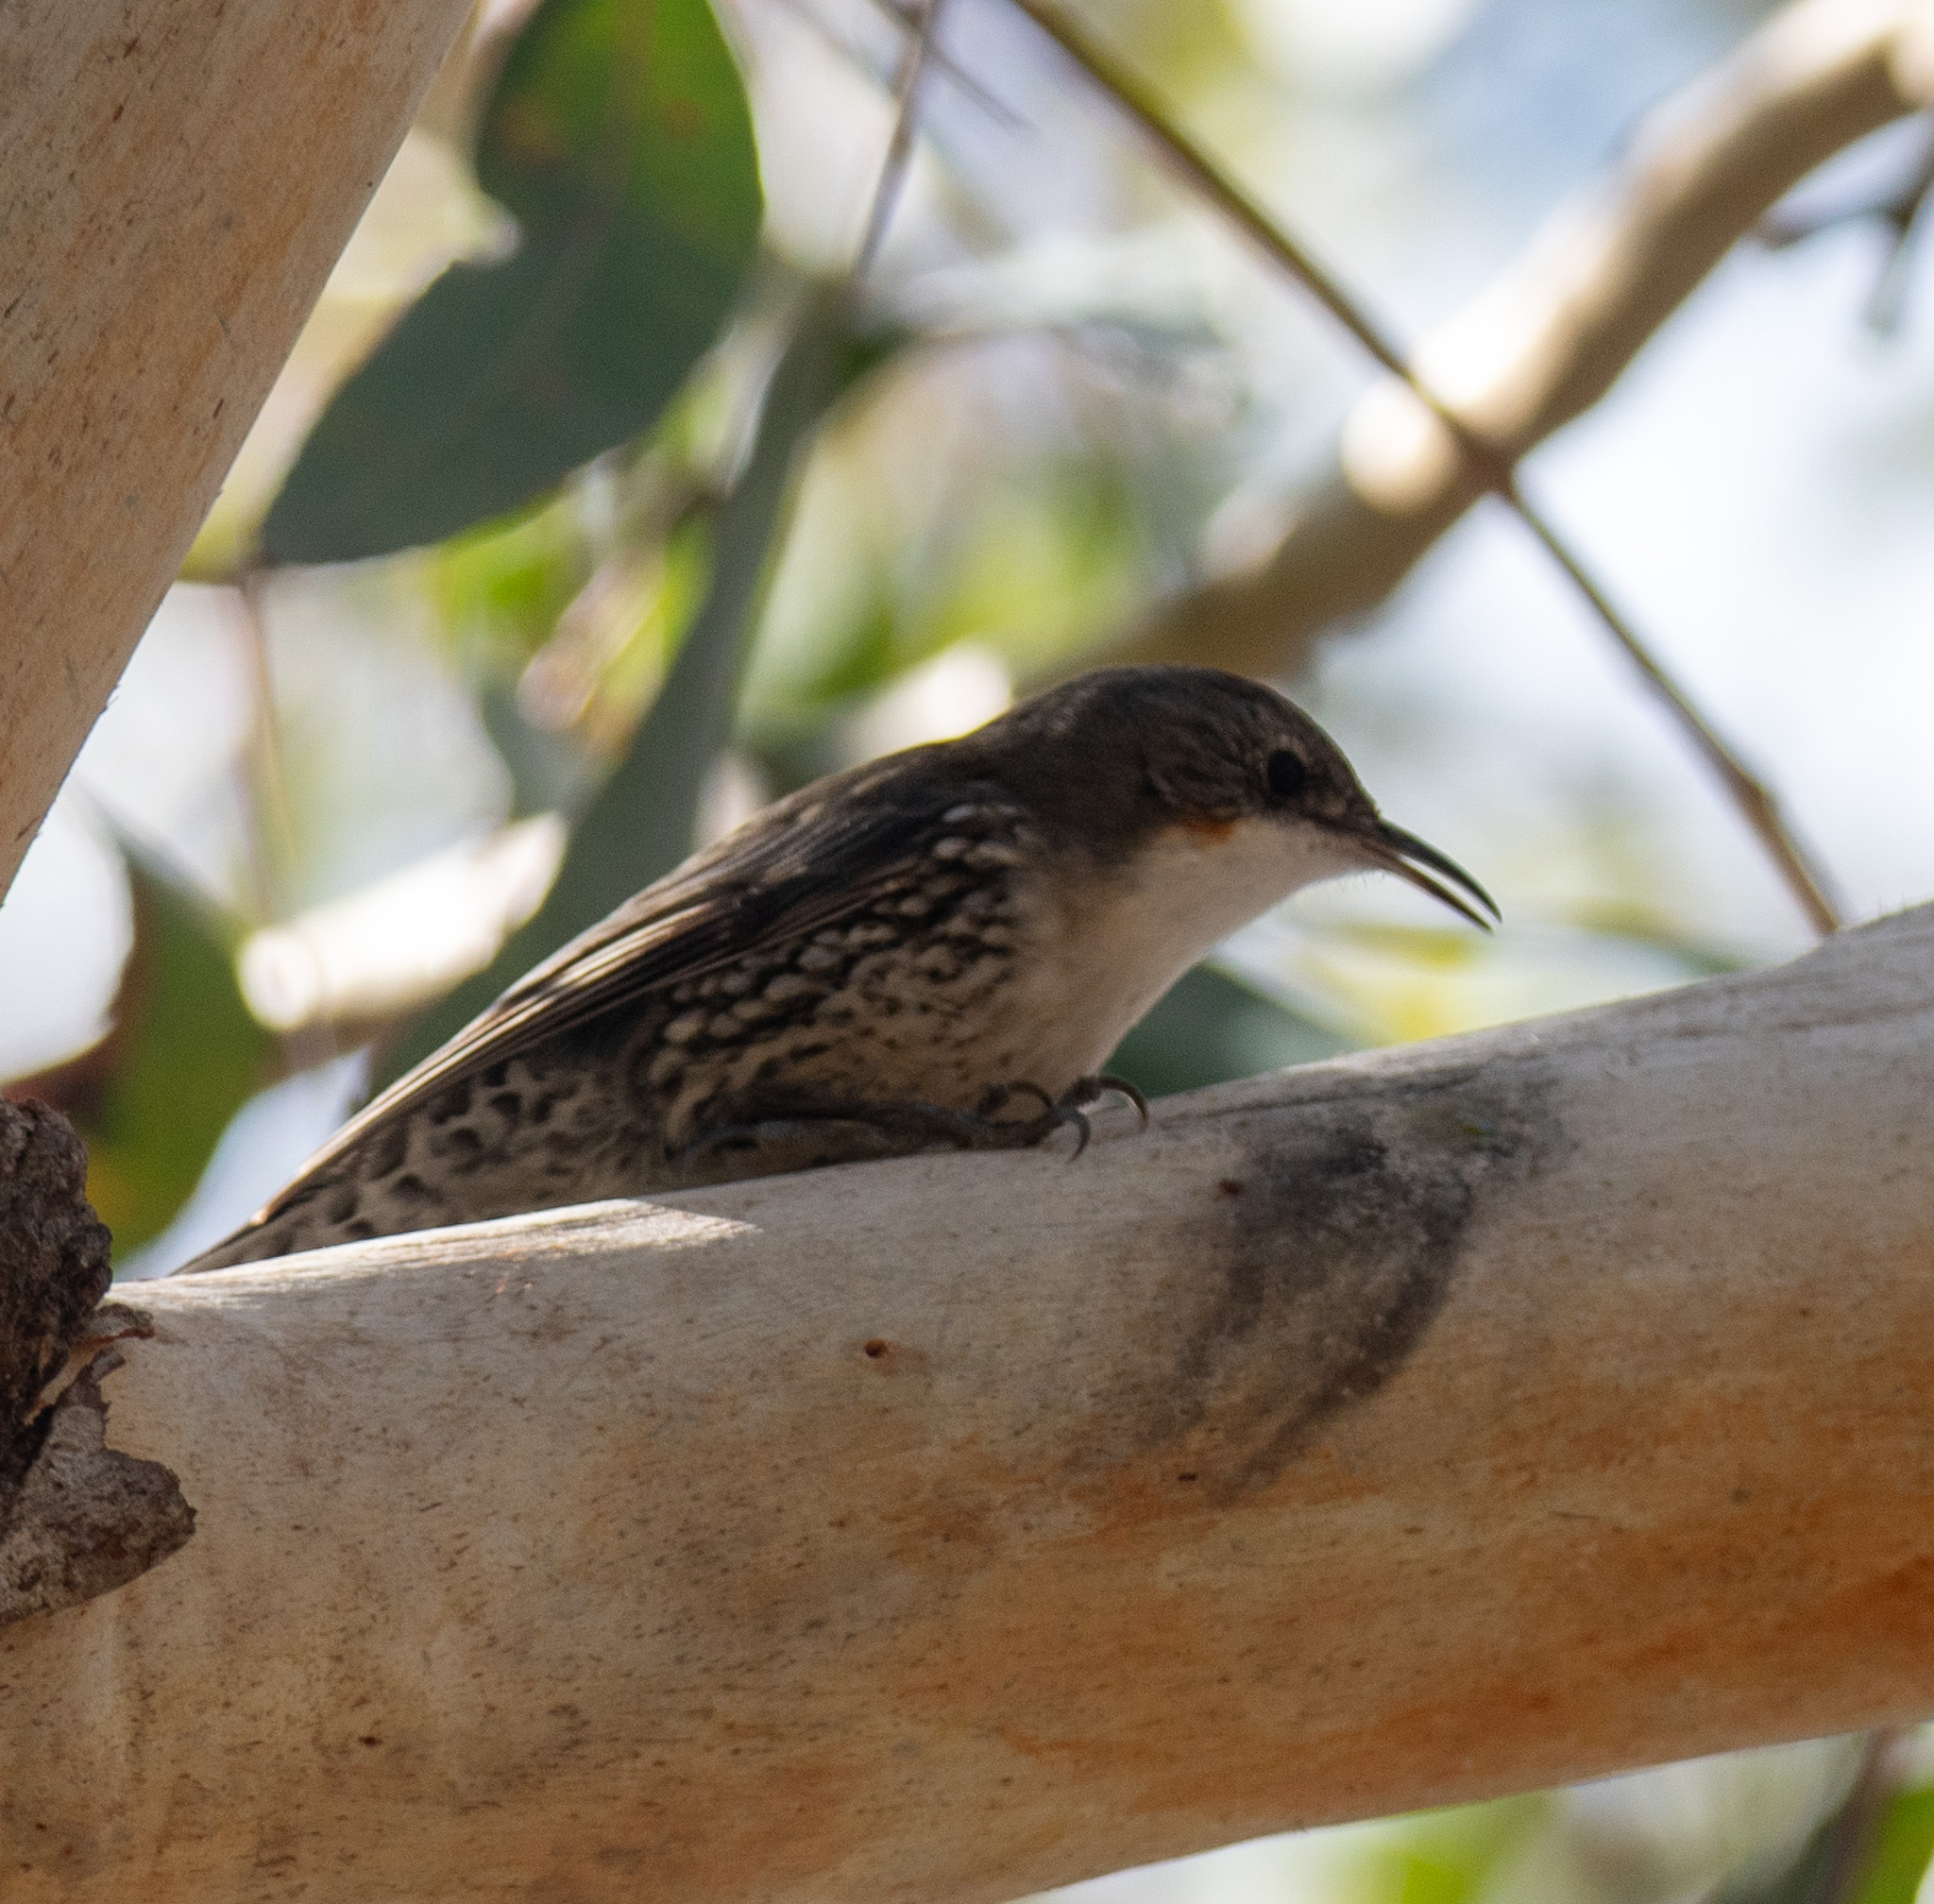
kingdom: Animalia
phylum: Chordata
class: Aves
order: Passeriformes
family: Climacteridae
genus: Cormobates
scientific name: Cormobates leucophaea
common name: White-throated treecreeper
